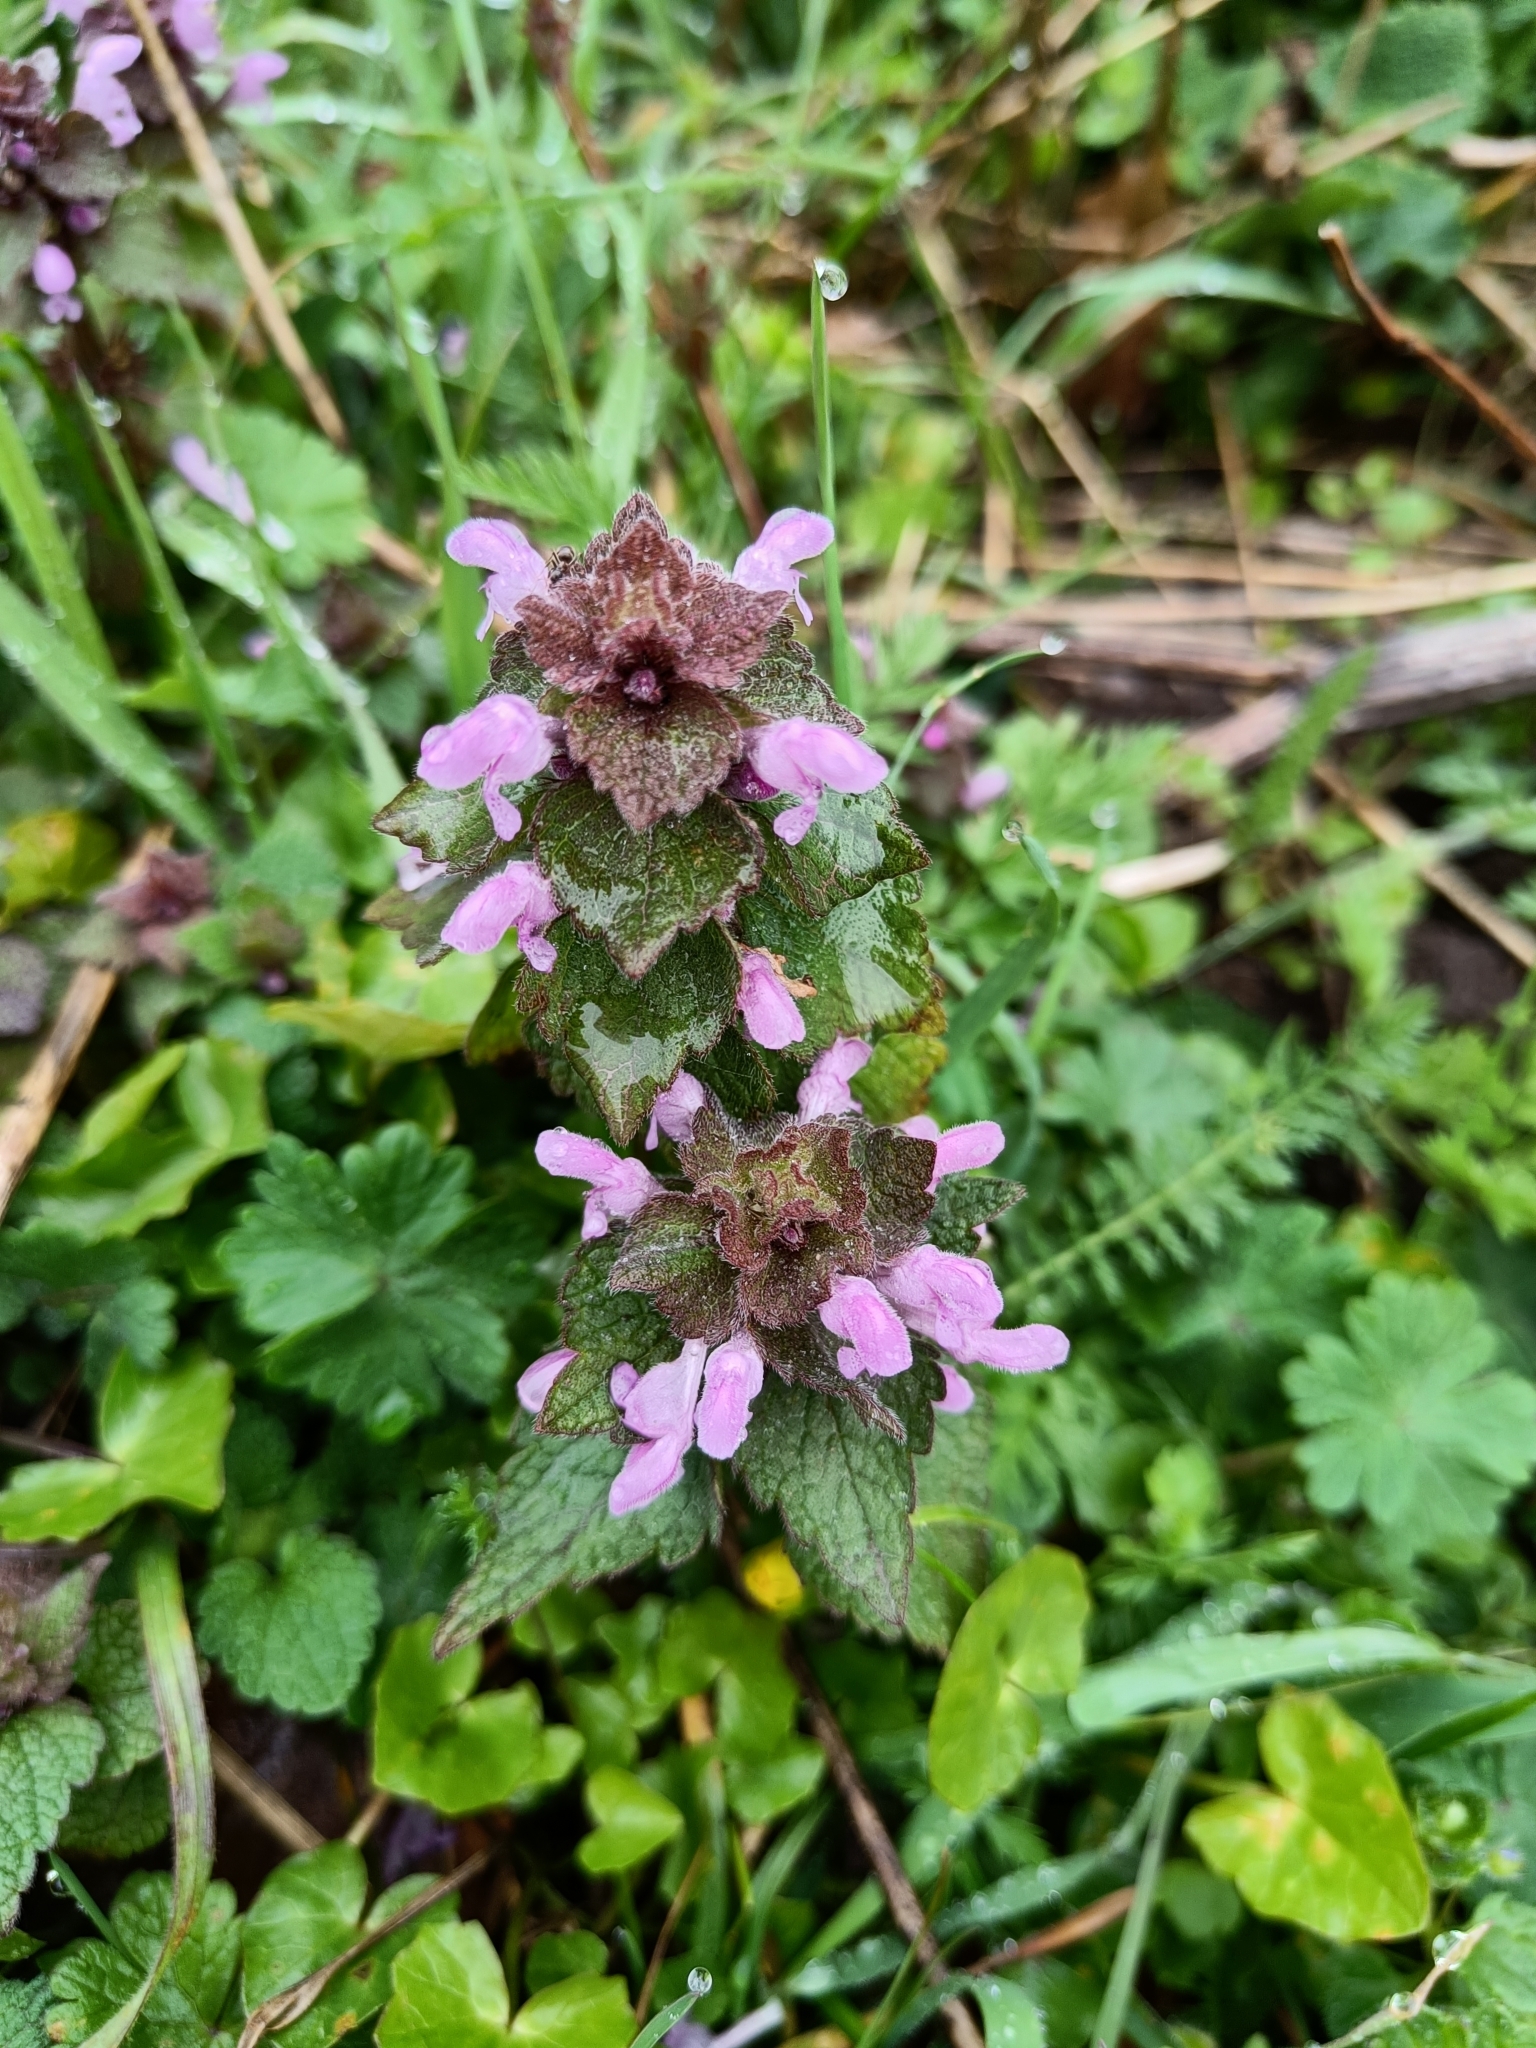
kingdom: Plantae
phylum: Tracheophyta
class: Magnoliopsida
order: Lamiales
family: Lamiaceae
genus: Lamium
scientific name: Lamium purpureum
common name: Red dead-nettle
